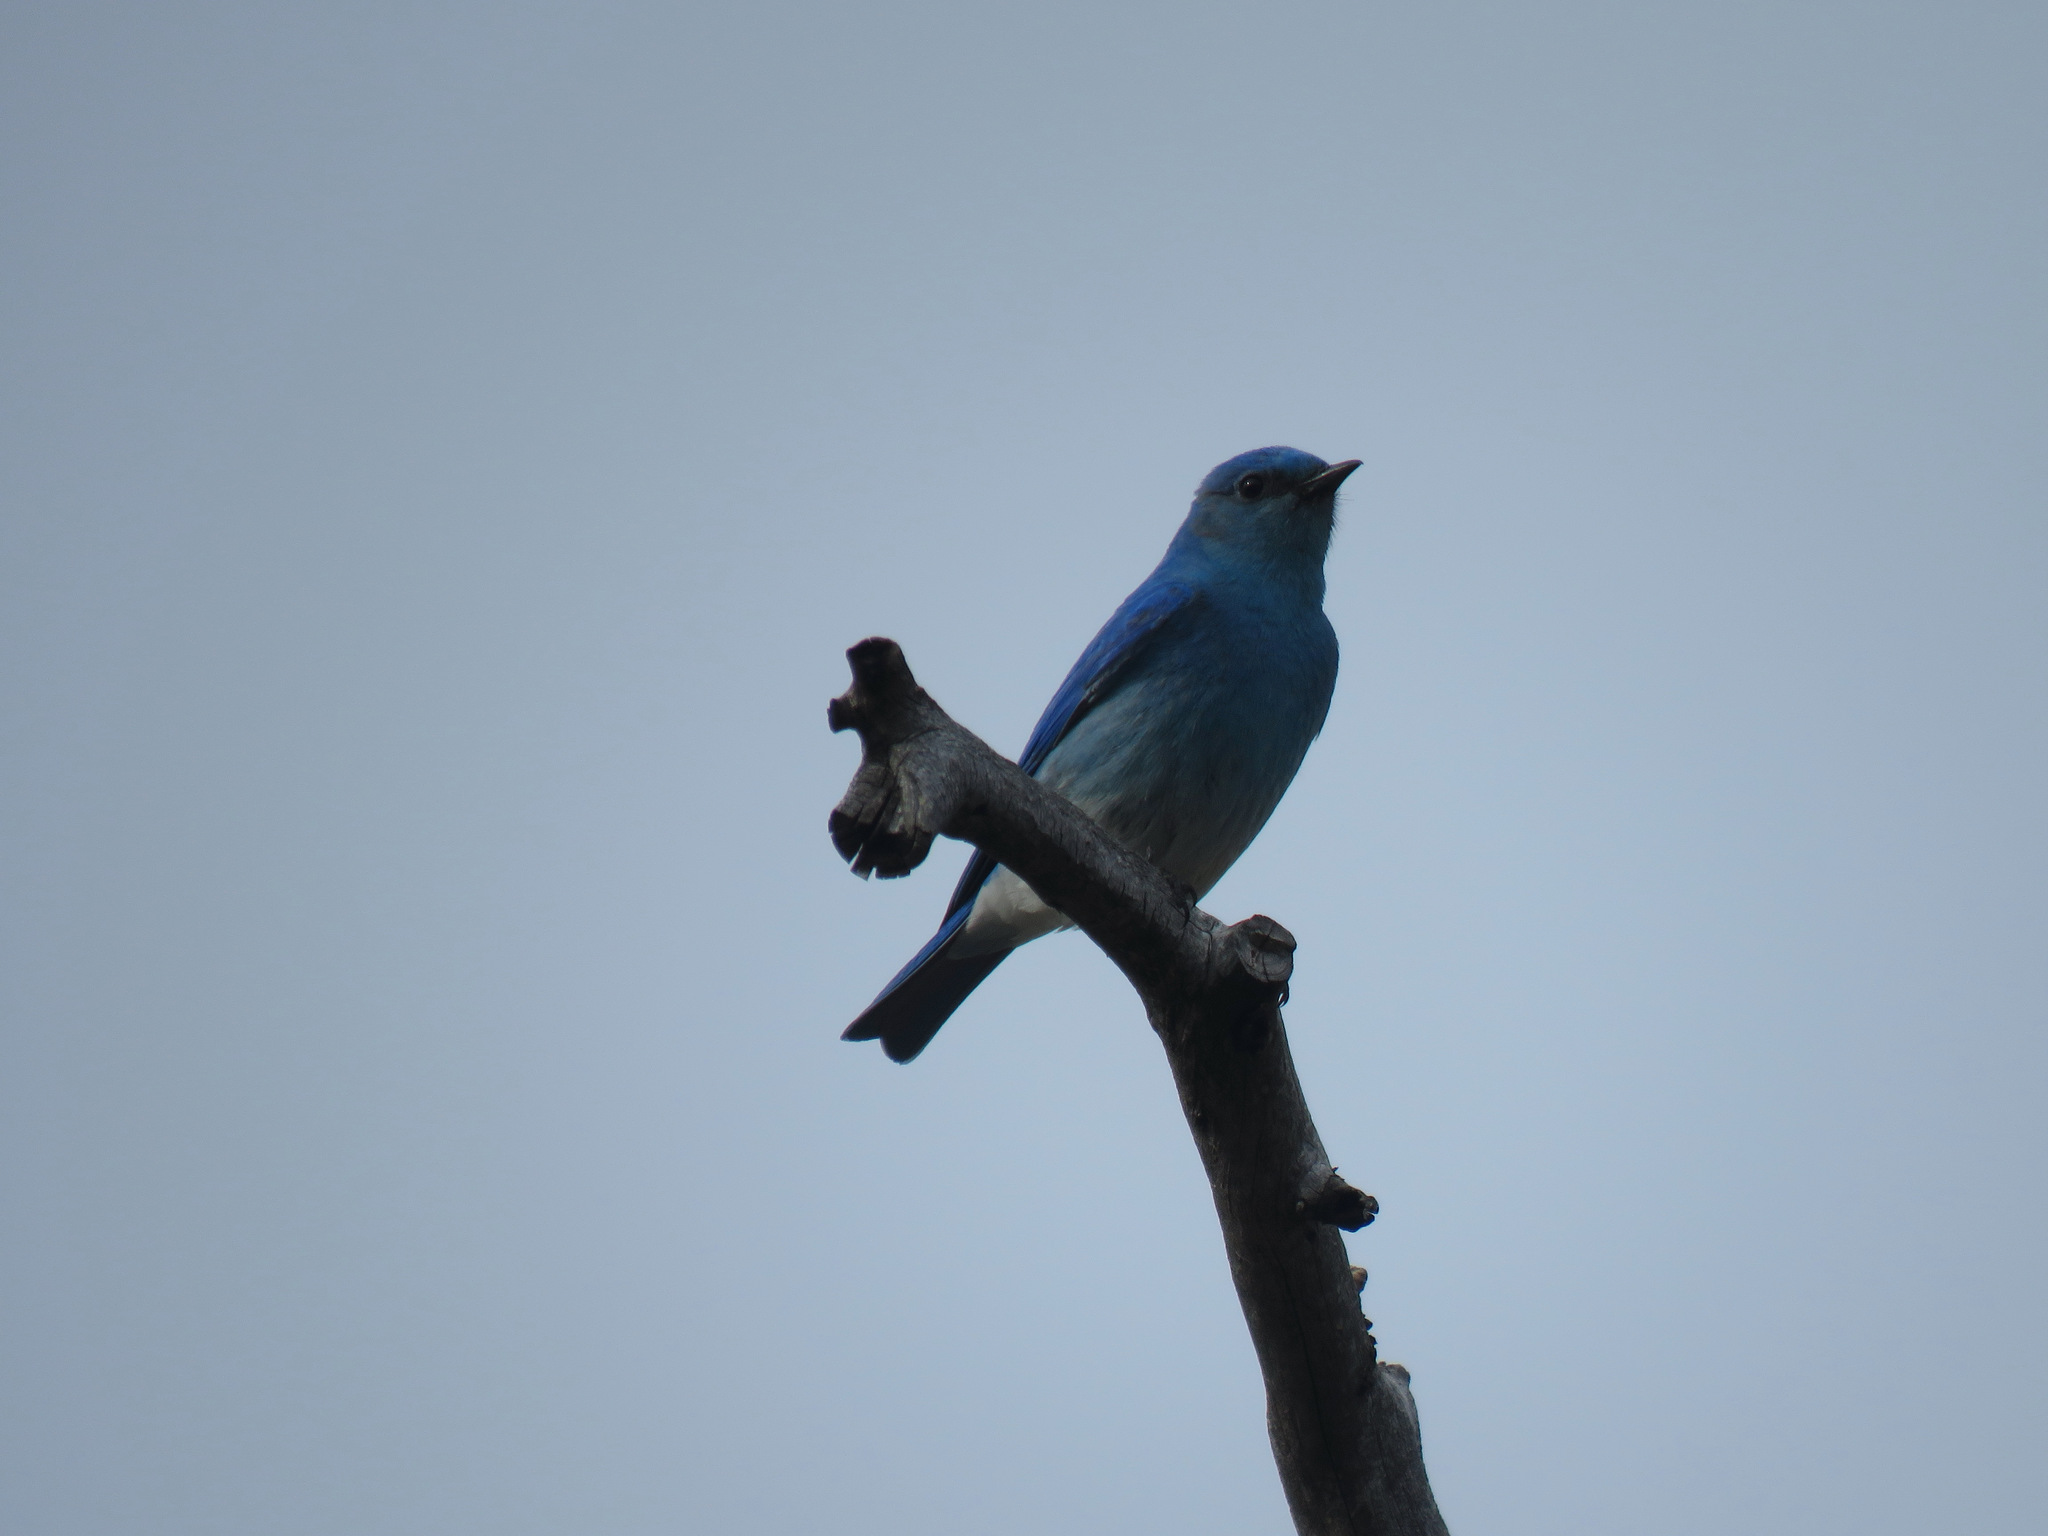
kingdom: Animalia
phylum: Chordata
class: Aves
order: Passeriformes
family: Turdidae
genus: Sialia
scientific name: Sialia currucoides
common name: Mountain bluebird
